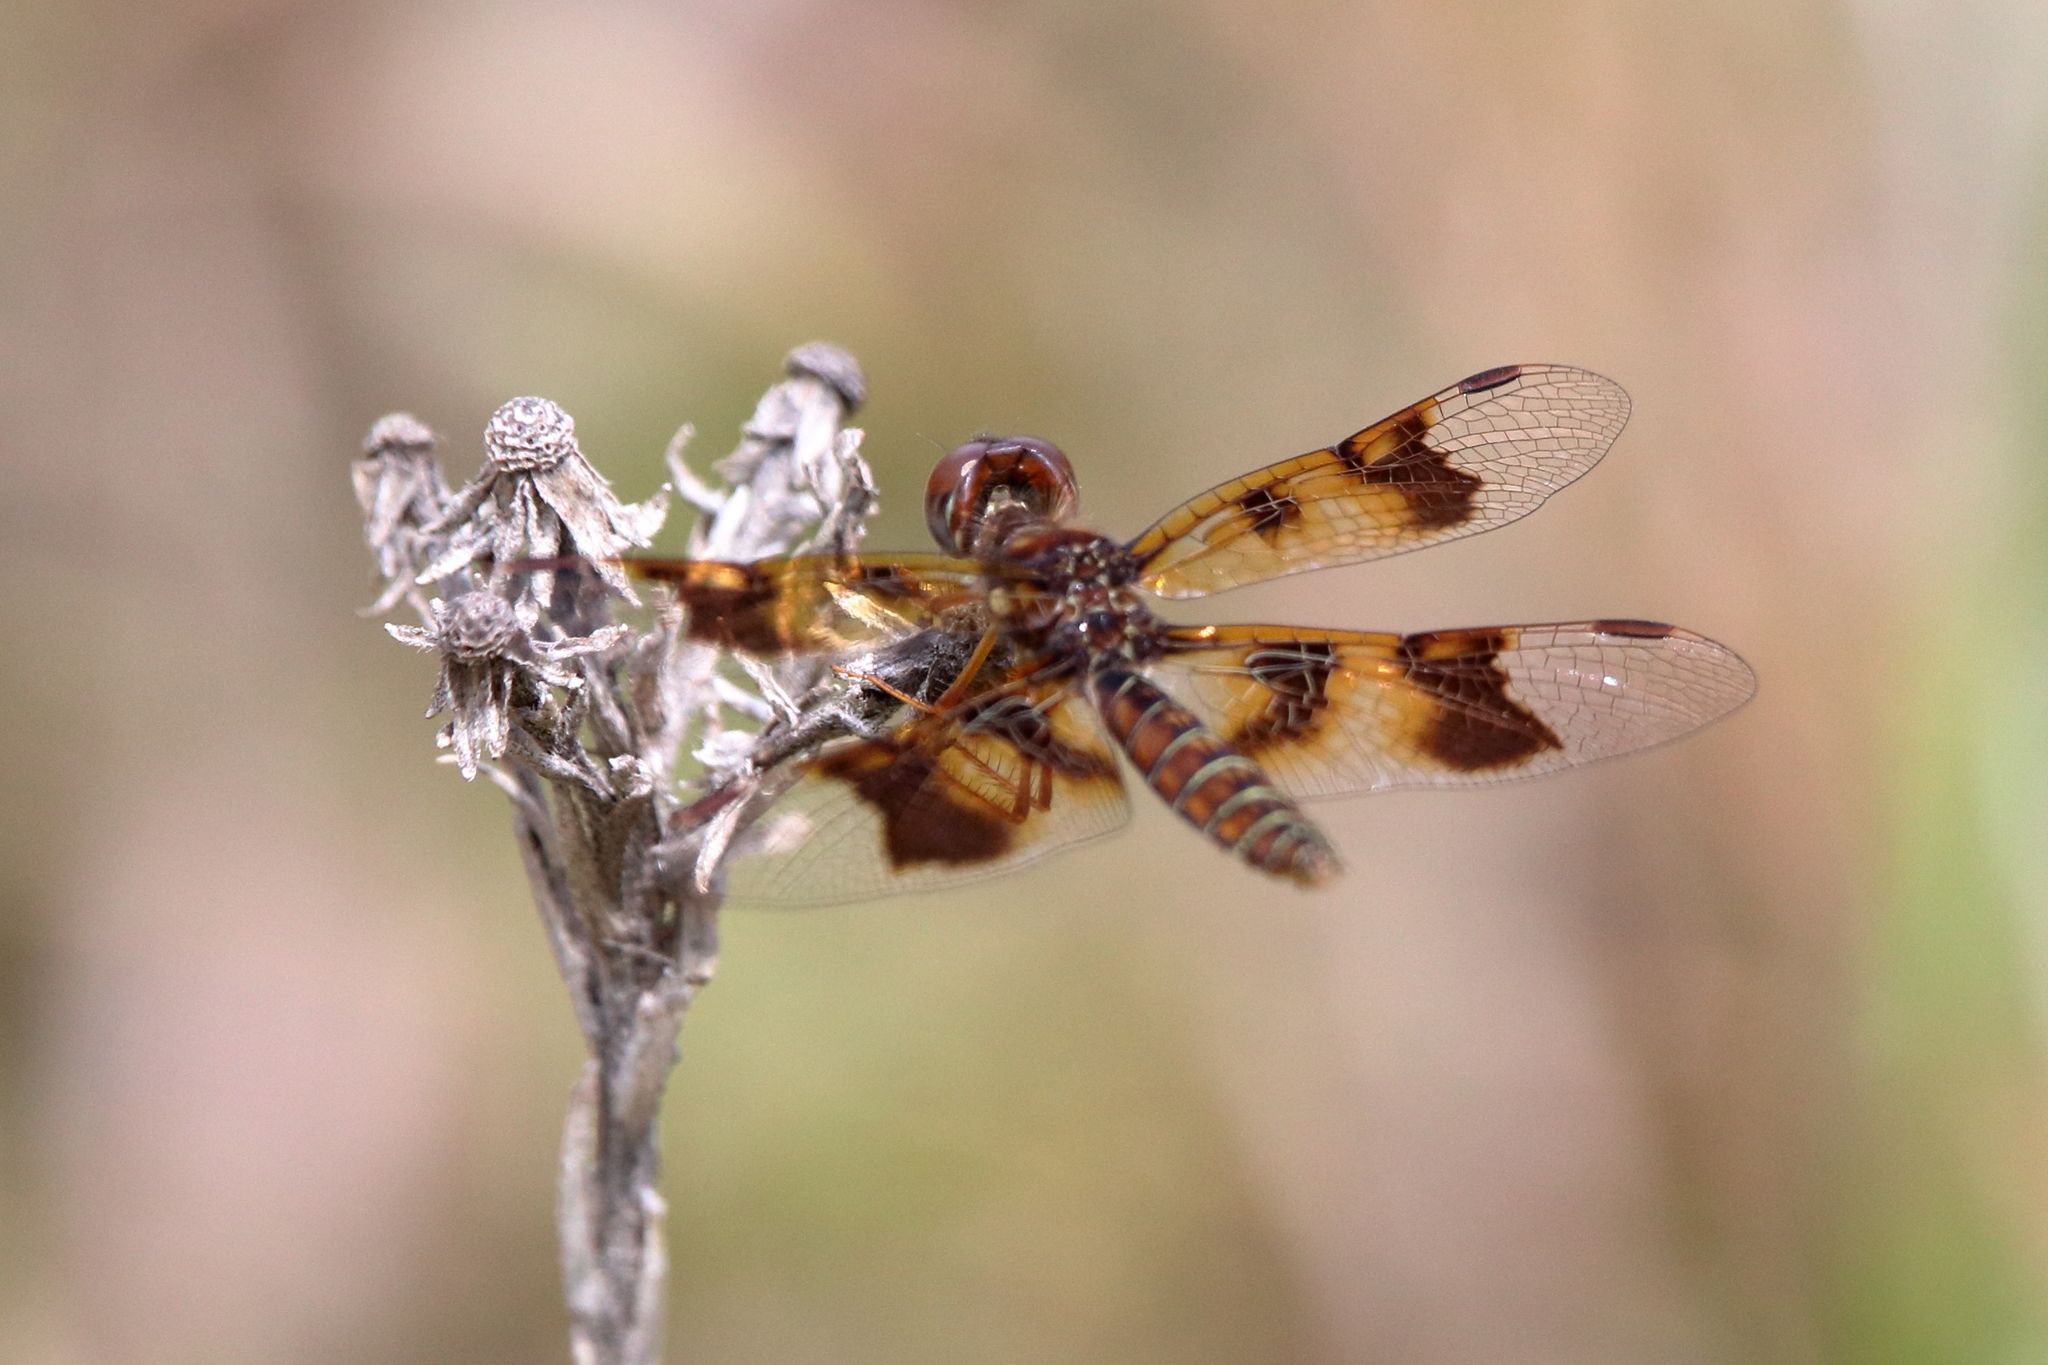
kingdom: Animalia
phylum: Arthropoda
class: Insecta
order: Odonata
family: Libellulidae
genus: Perithemis
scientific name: Perithemis tenera
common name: Eastern amberwing
